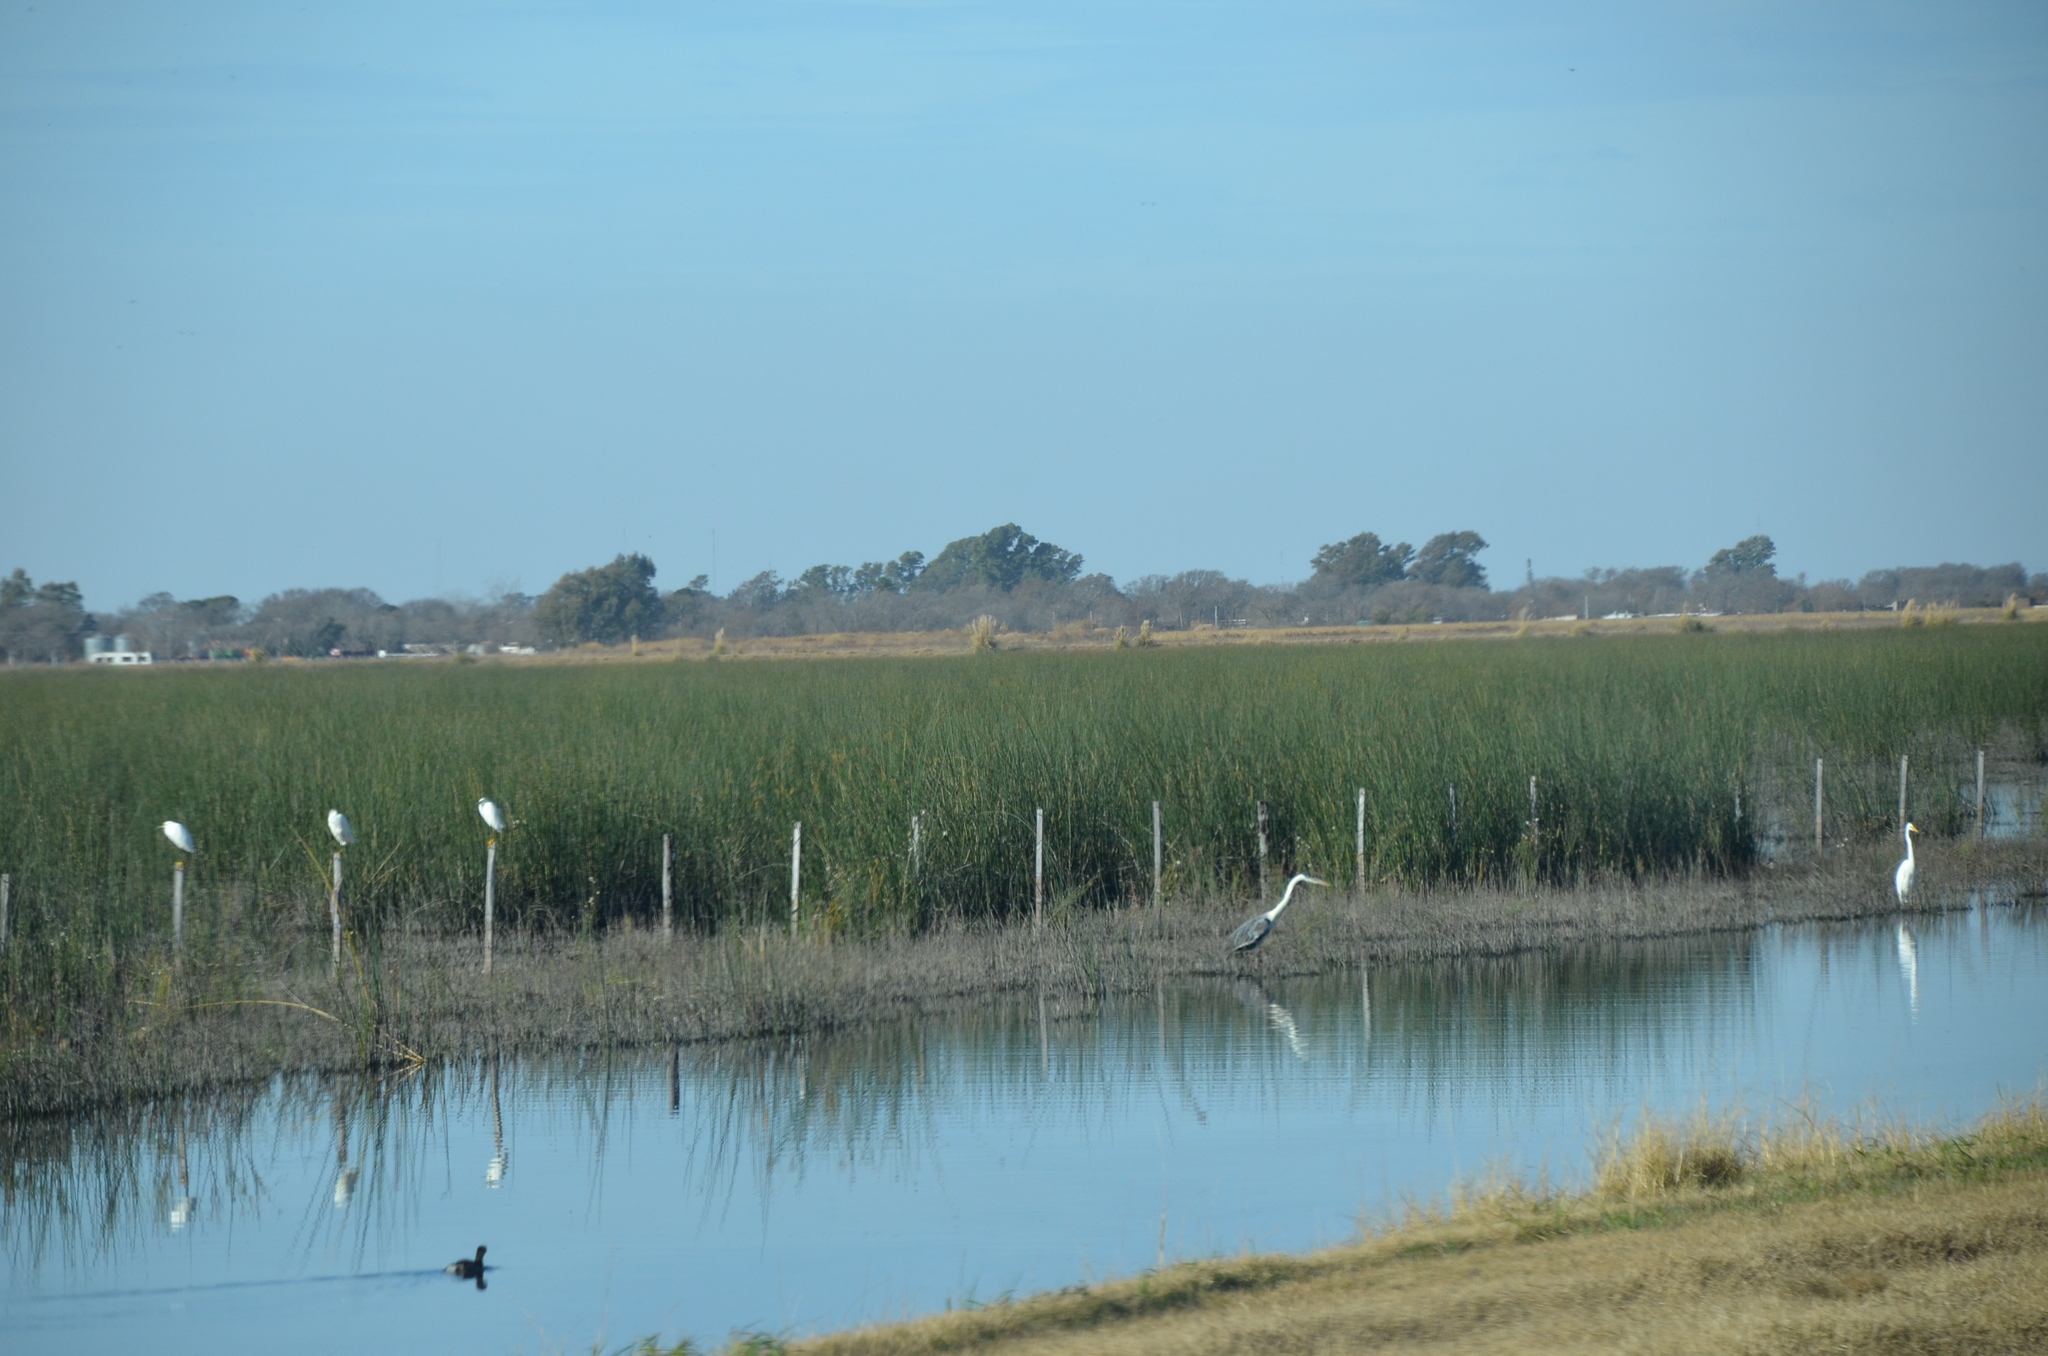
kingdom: Animalia
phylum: Chordata
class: Aves
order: Pelecaniformes
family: Ardeidae
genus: Ardea
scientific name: Ardea cocoi
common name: Cocoi heron
